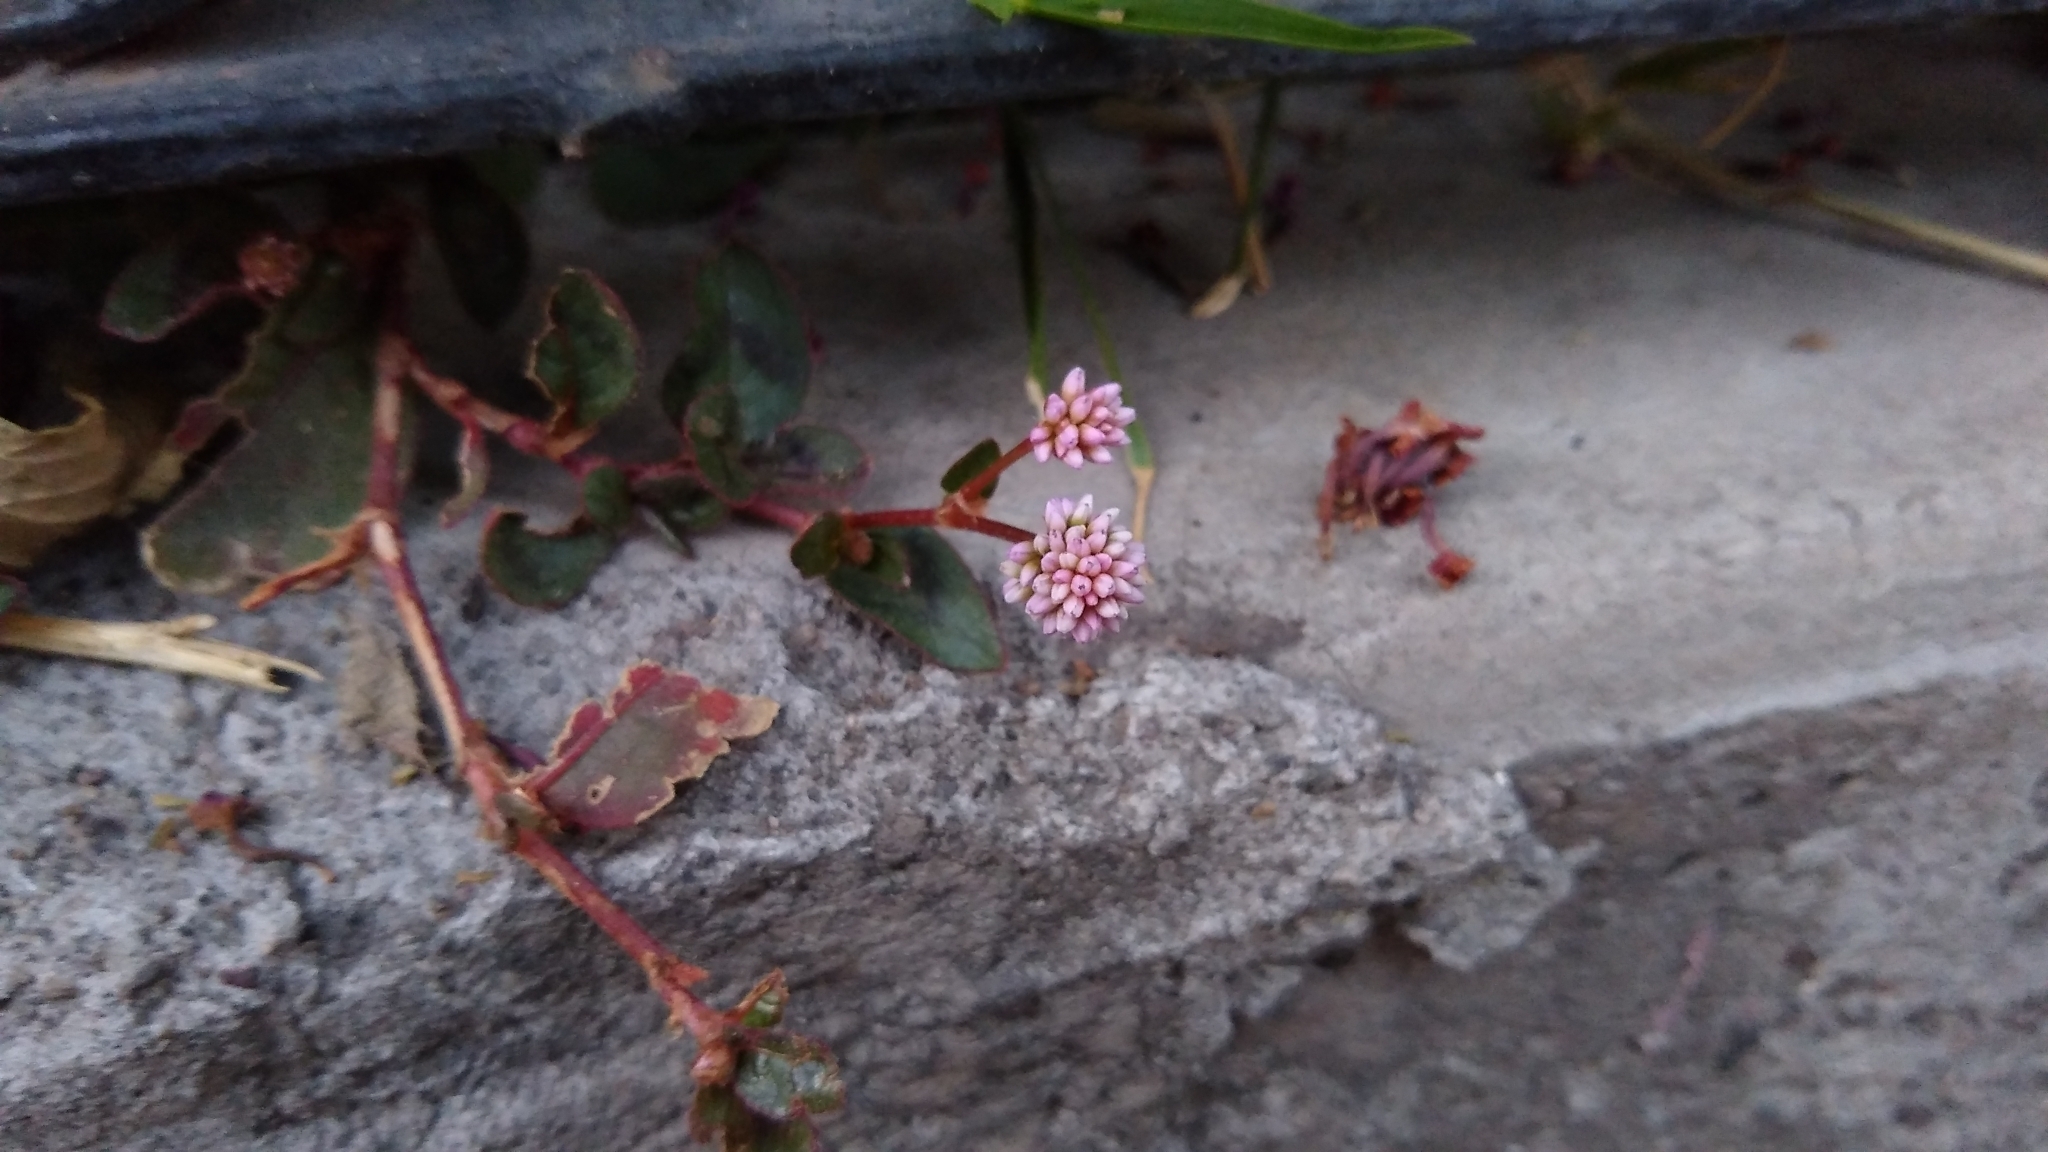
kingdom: Plantae
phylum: Tracheophyta
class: Magnoliopsida
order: Caryophyllales
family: Polygonaceae
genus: Persicaria
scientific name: Persicaria capitata
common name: Pinkhead smartweed
